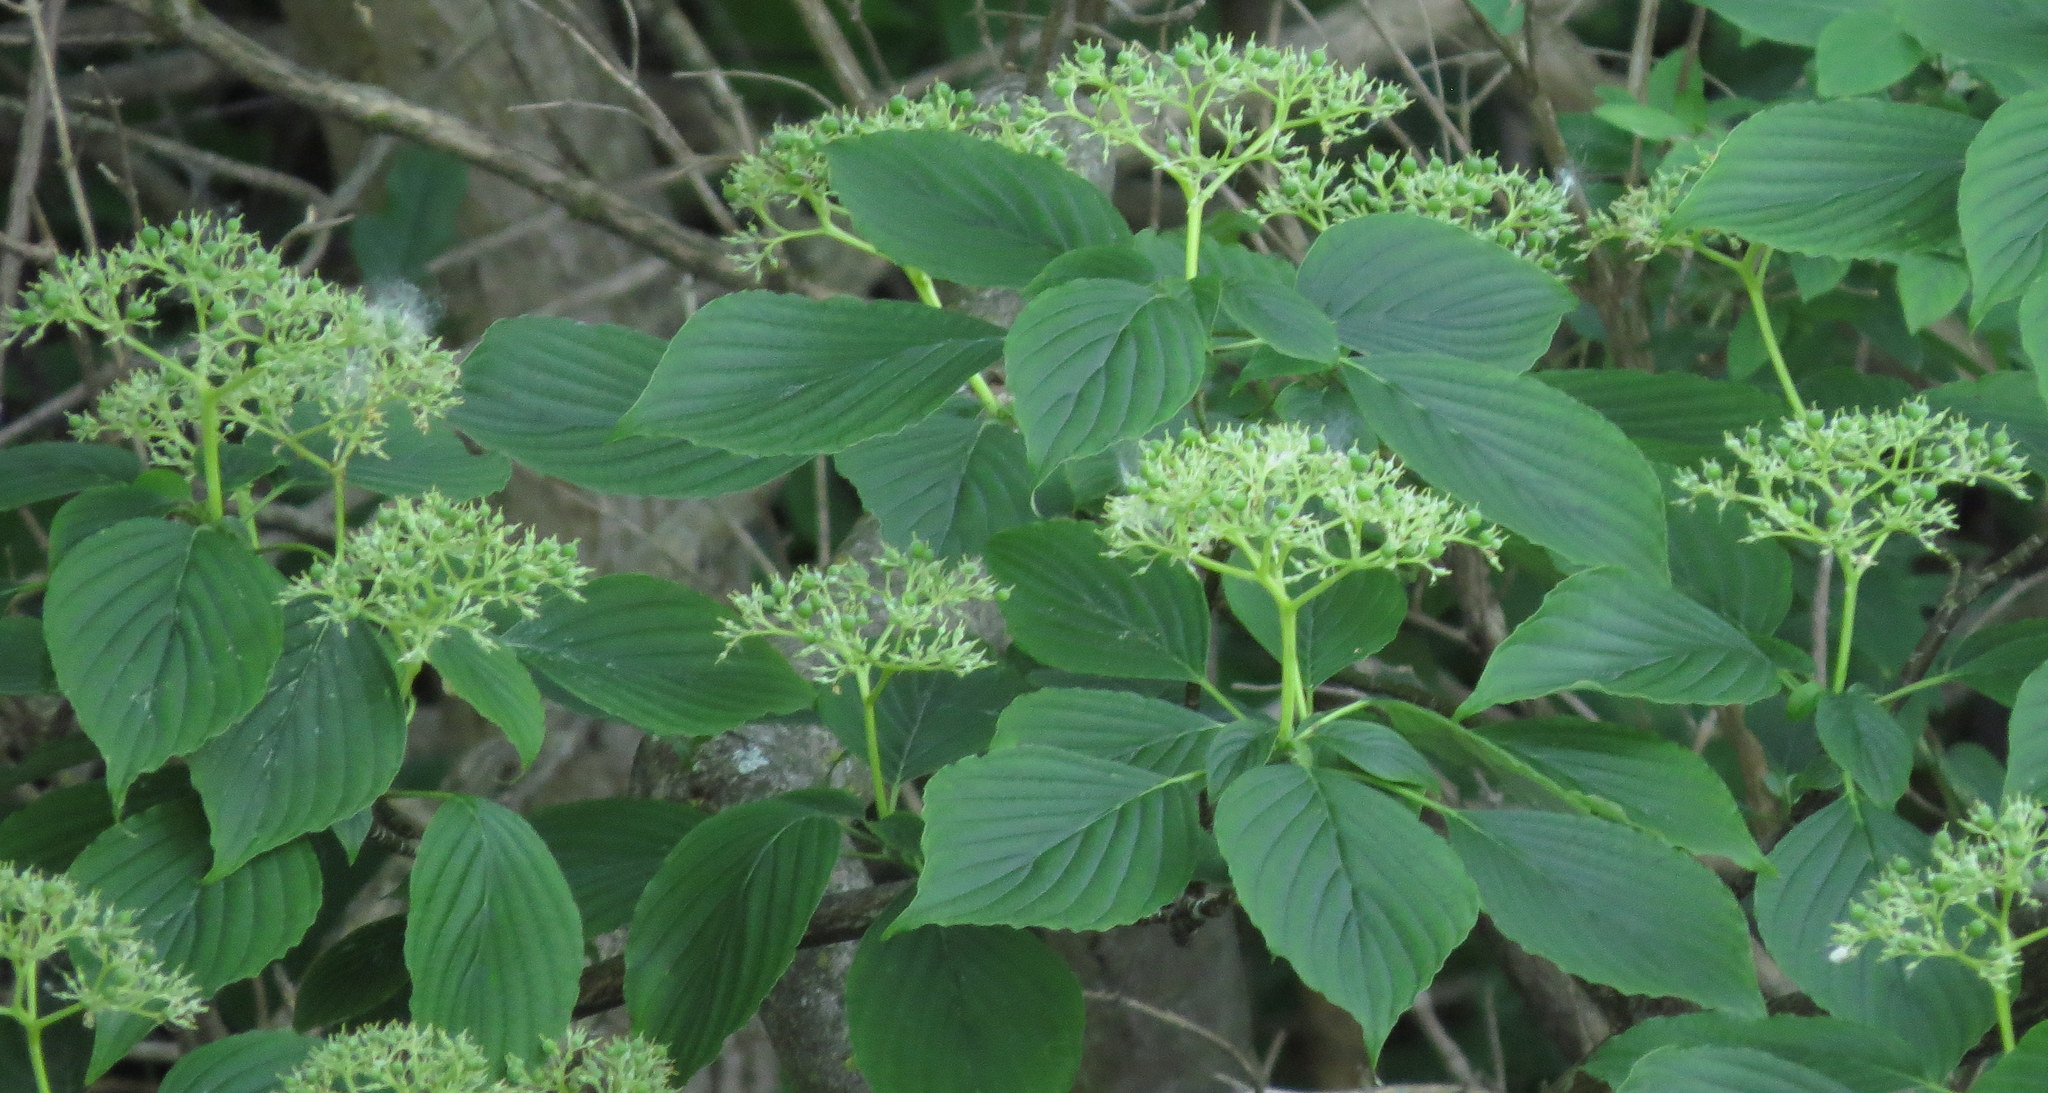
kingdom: Plantae
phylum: Tracheophyta
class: Magnoliopsida
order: Cornales
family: Cornaceae
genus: Cornus
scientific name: Cornus alternifolia
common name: Pagoda dogwood
